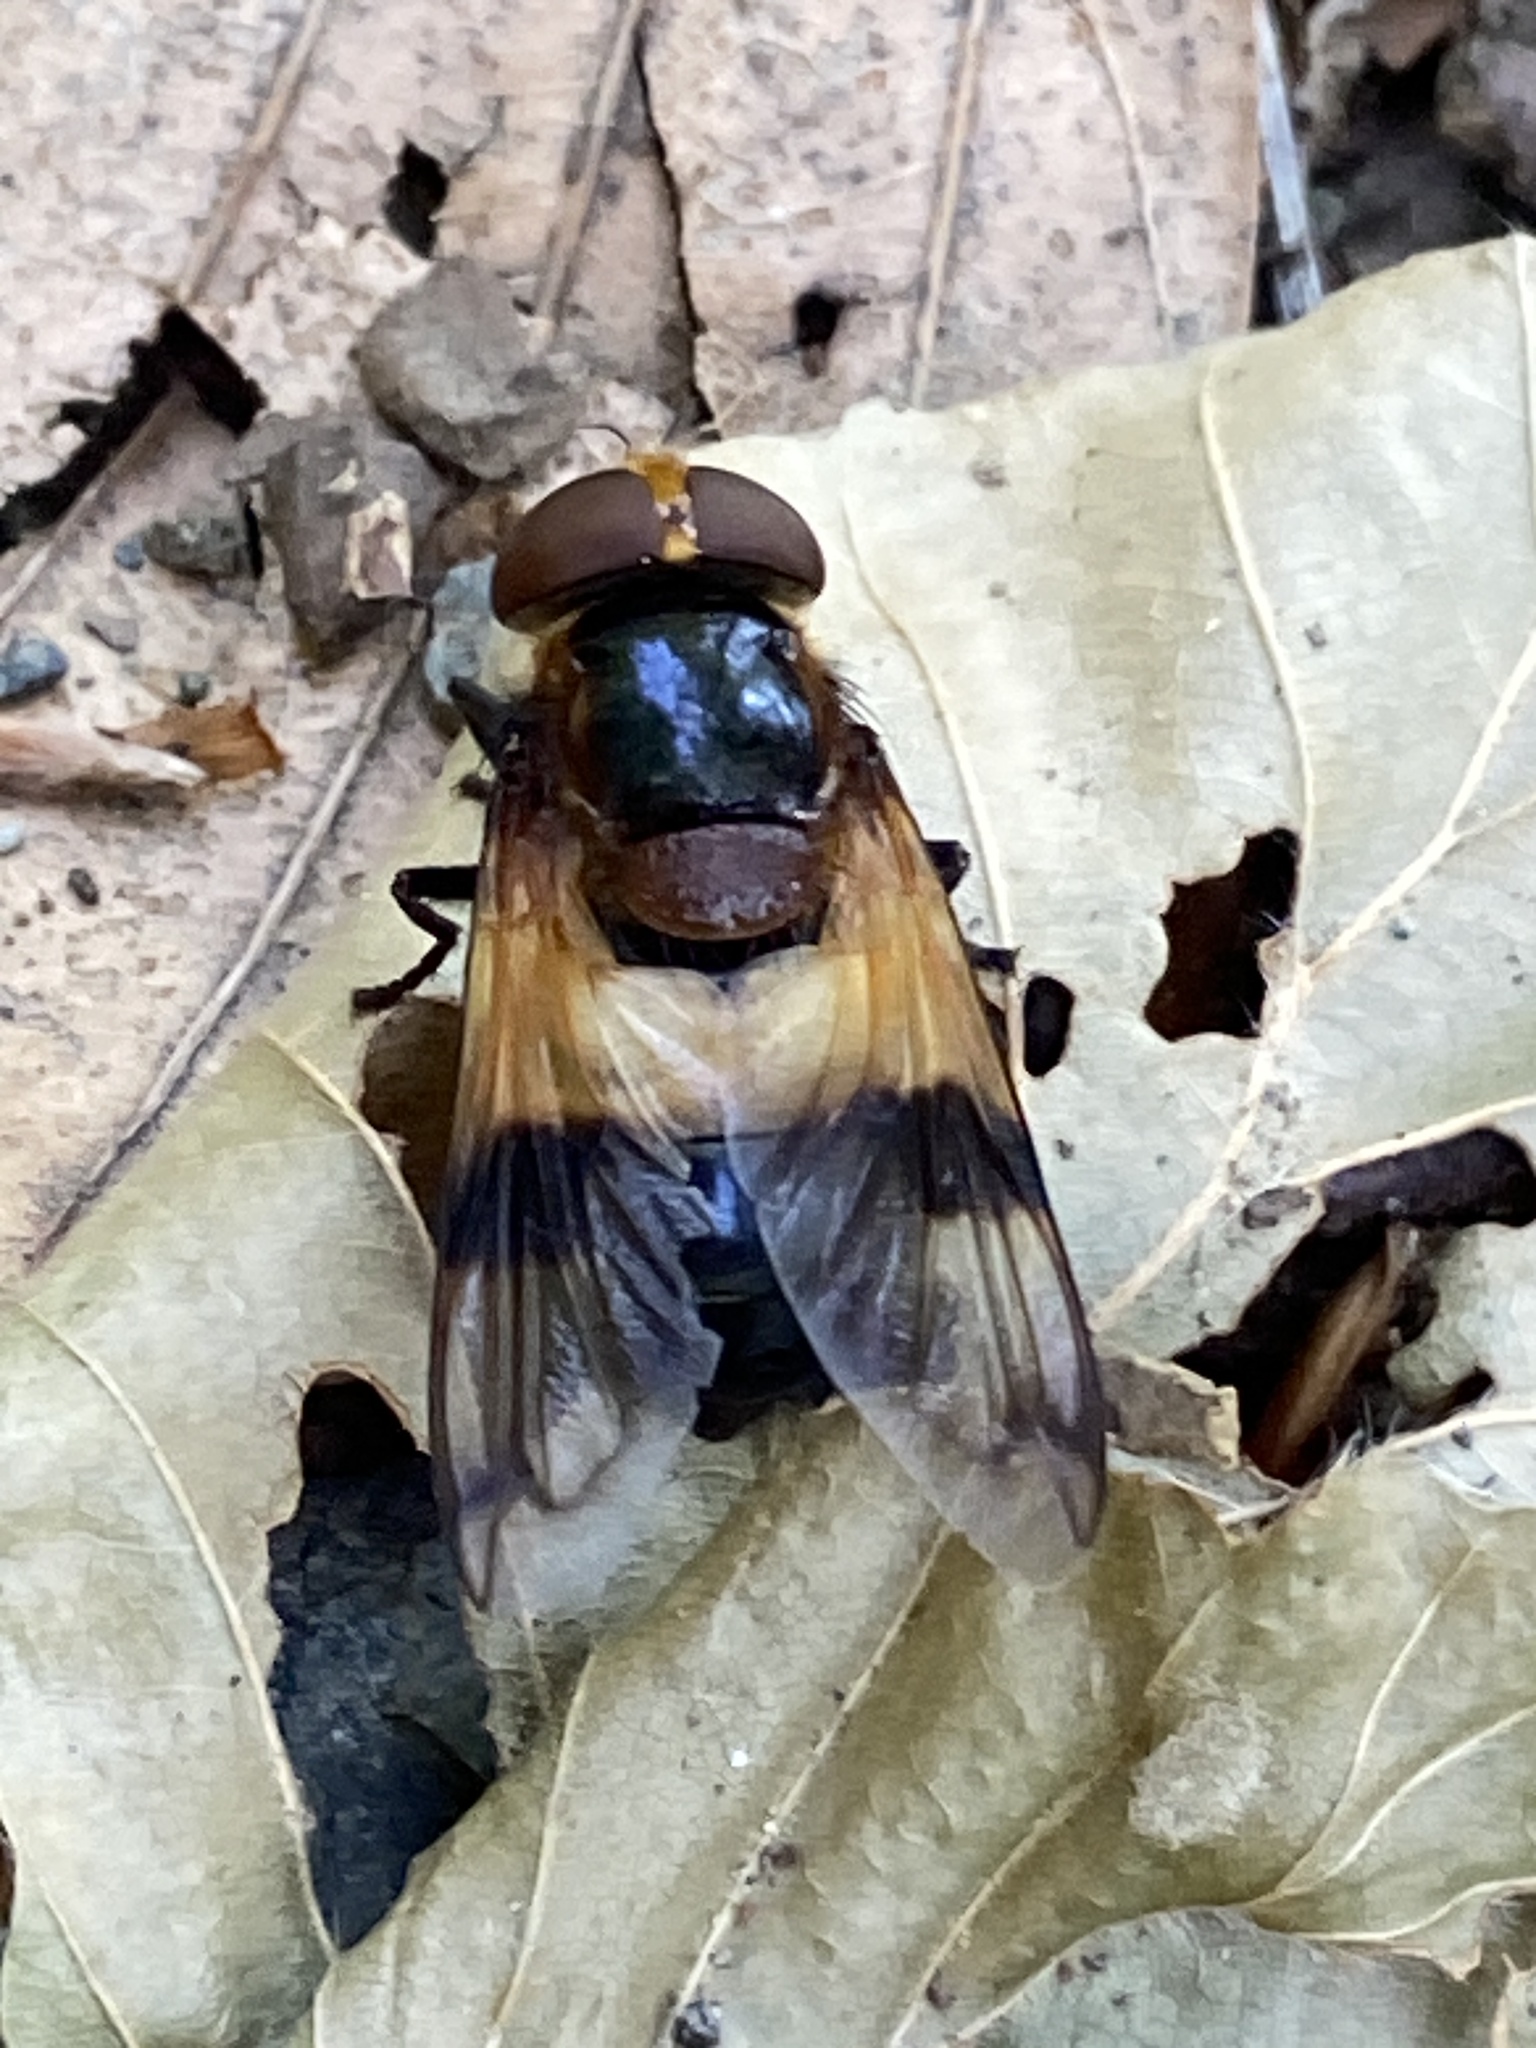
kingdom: Animalia
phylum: Arthropoda
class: Insecta
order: Diptera
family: Syrphidae
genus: Volucella
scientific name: Volucella pellucens
